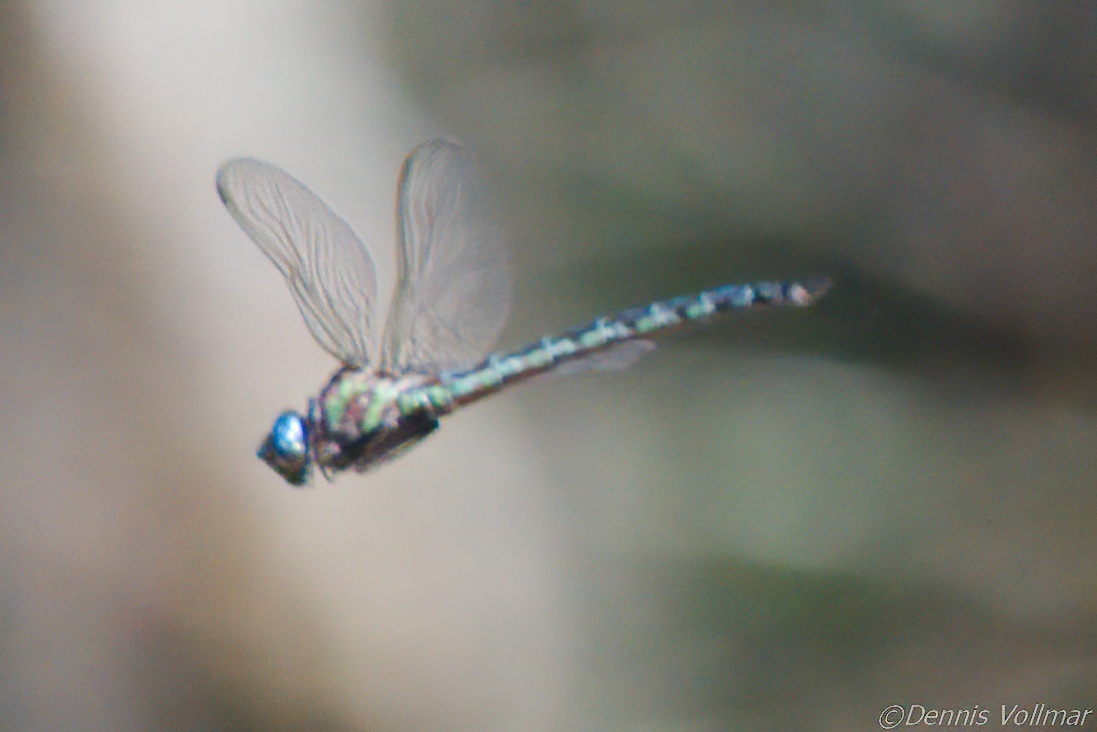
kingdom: Animalia
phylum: Arthropoda
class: Insecta
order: Odonata
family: Aeshnidae
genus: Nasiaeschna
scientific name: Nasiaeschna pentacantha
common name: Cyrano darner
